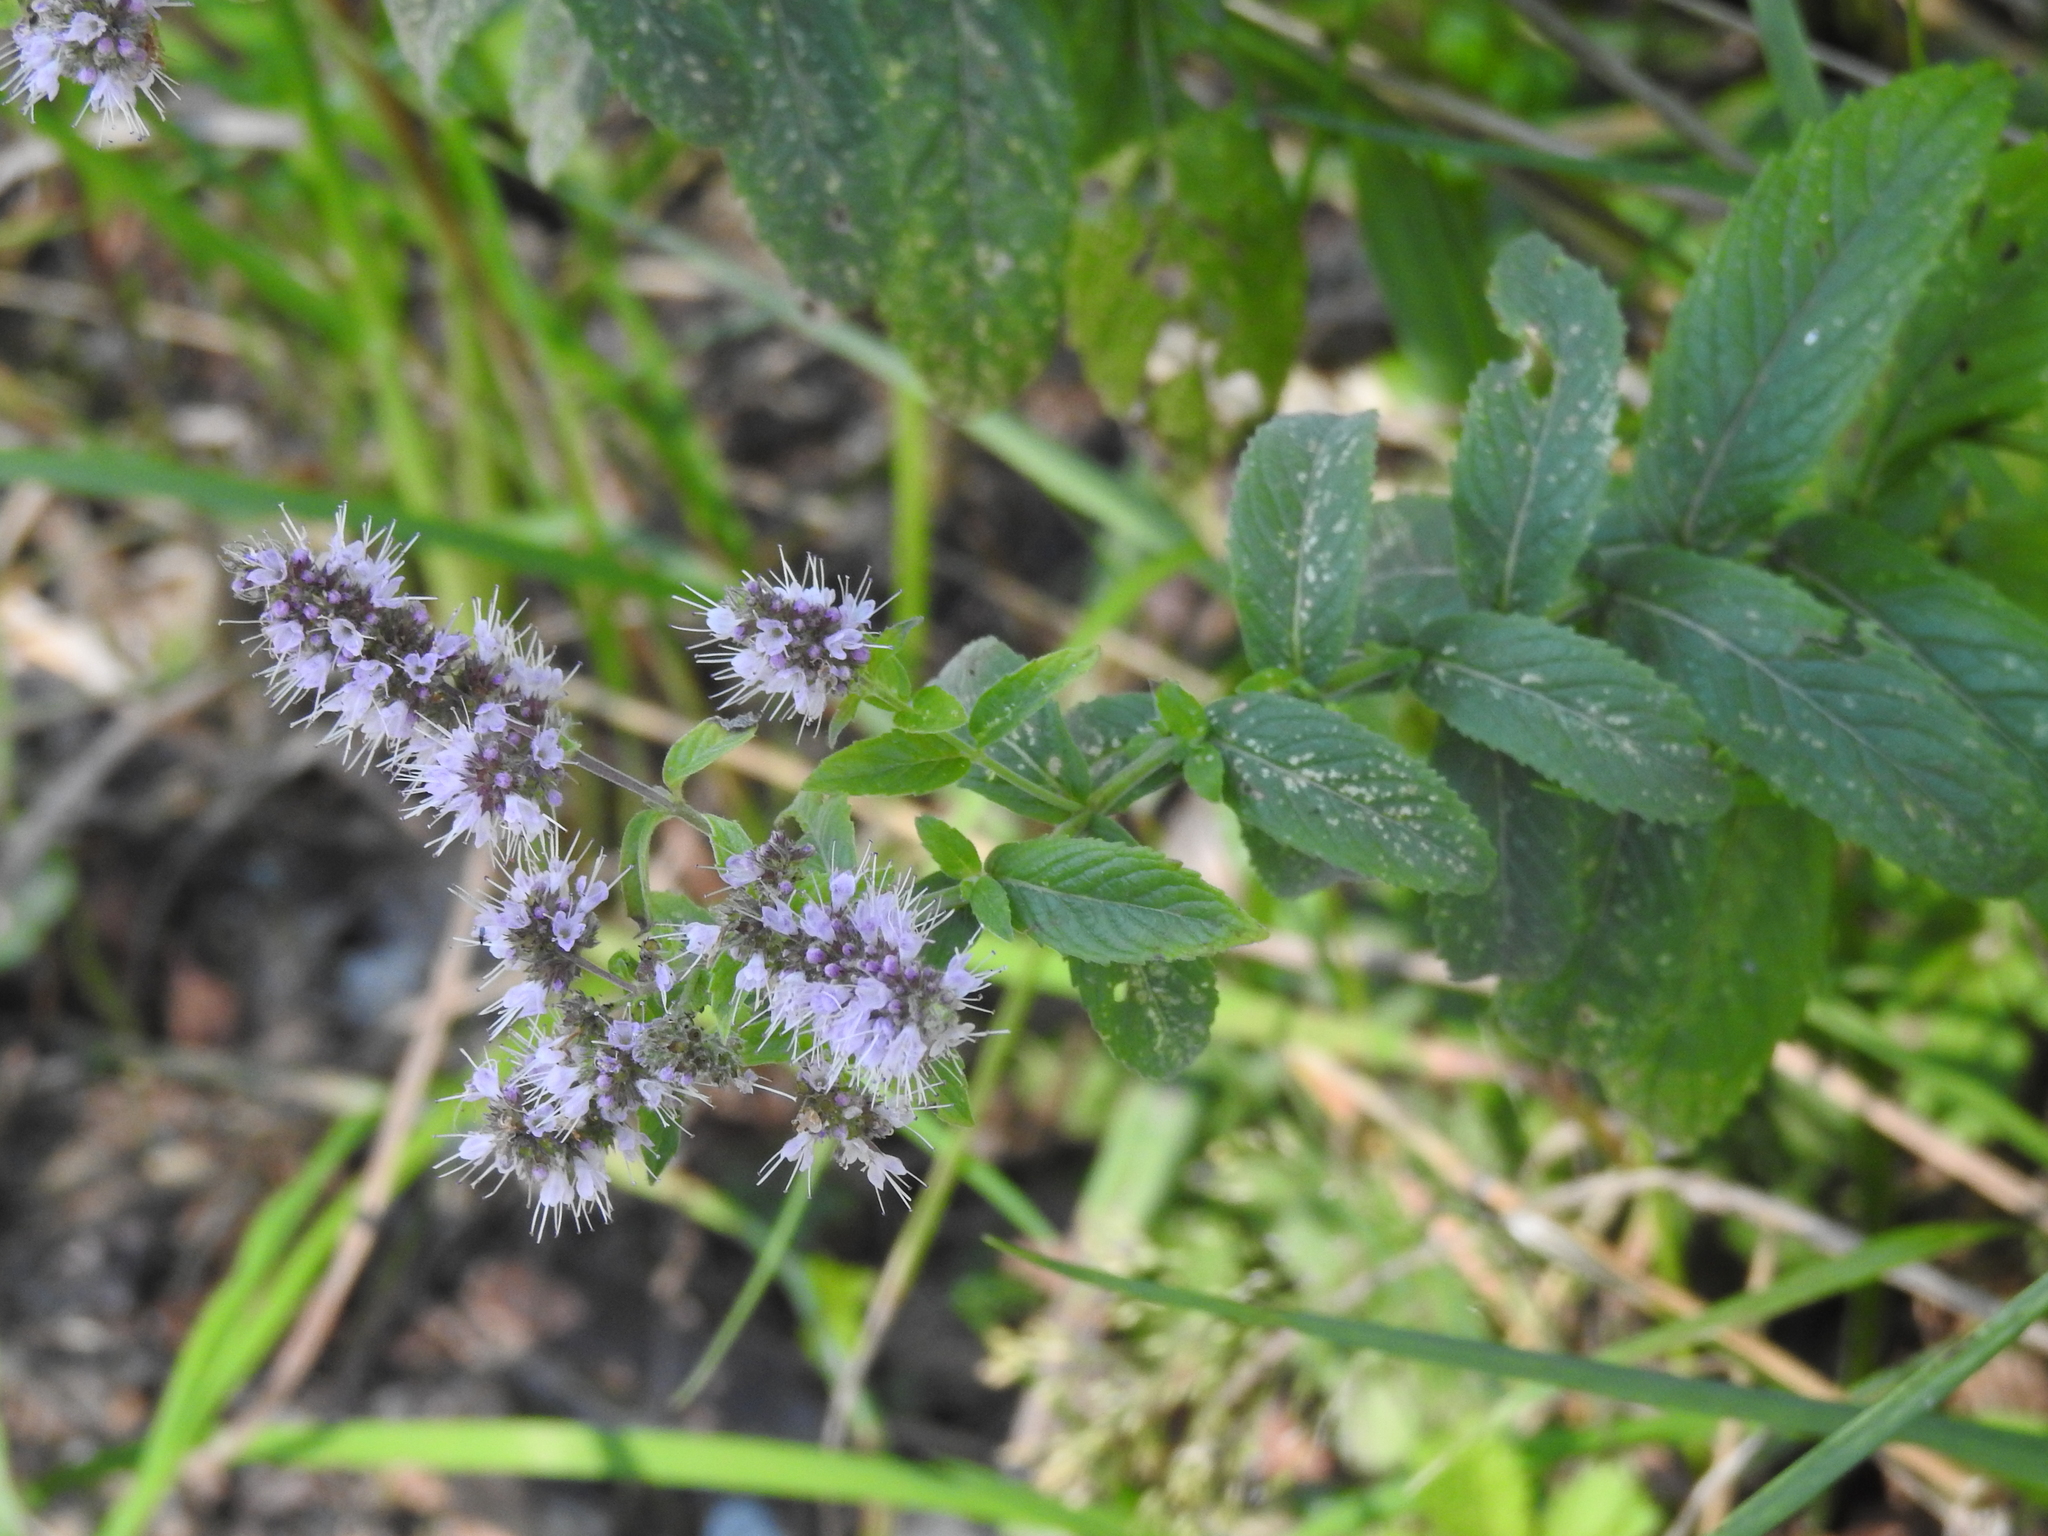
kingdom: Plantae
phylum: Tracheophyta
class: Magnoliopsida
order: Lamiales
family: Lamiaceae
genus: Mentha
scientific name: Mentha longifolia
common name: Horse mint
